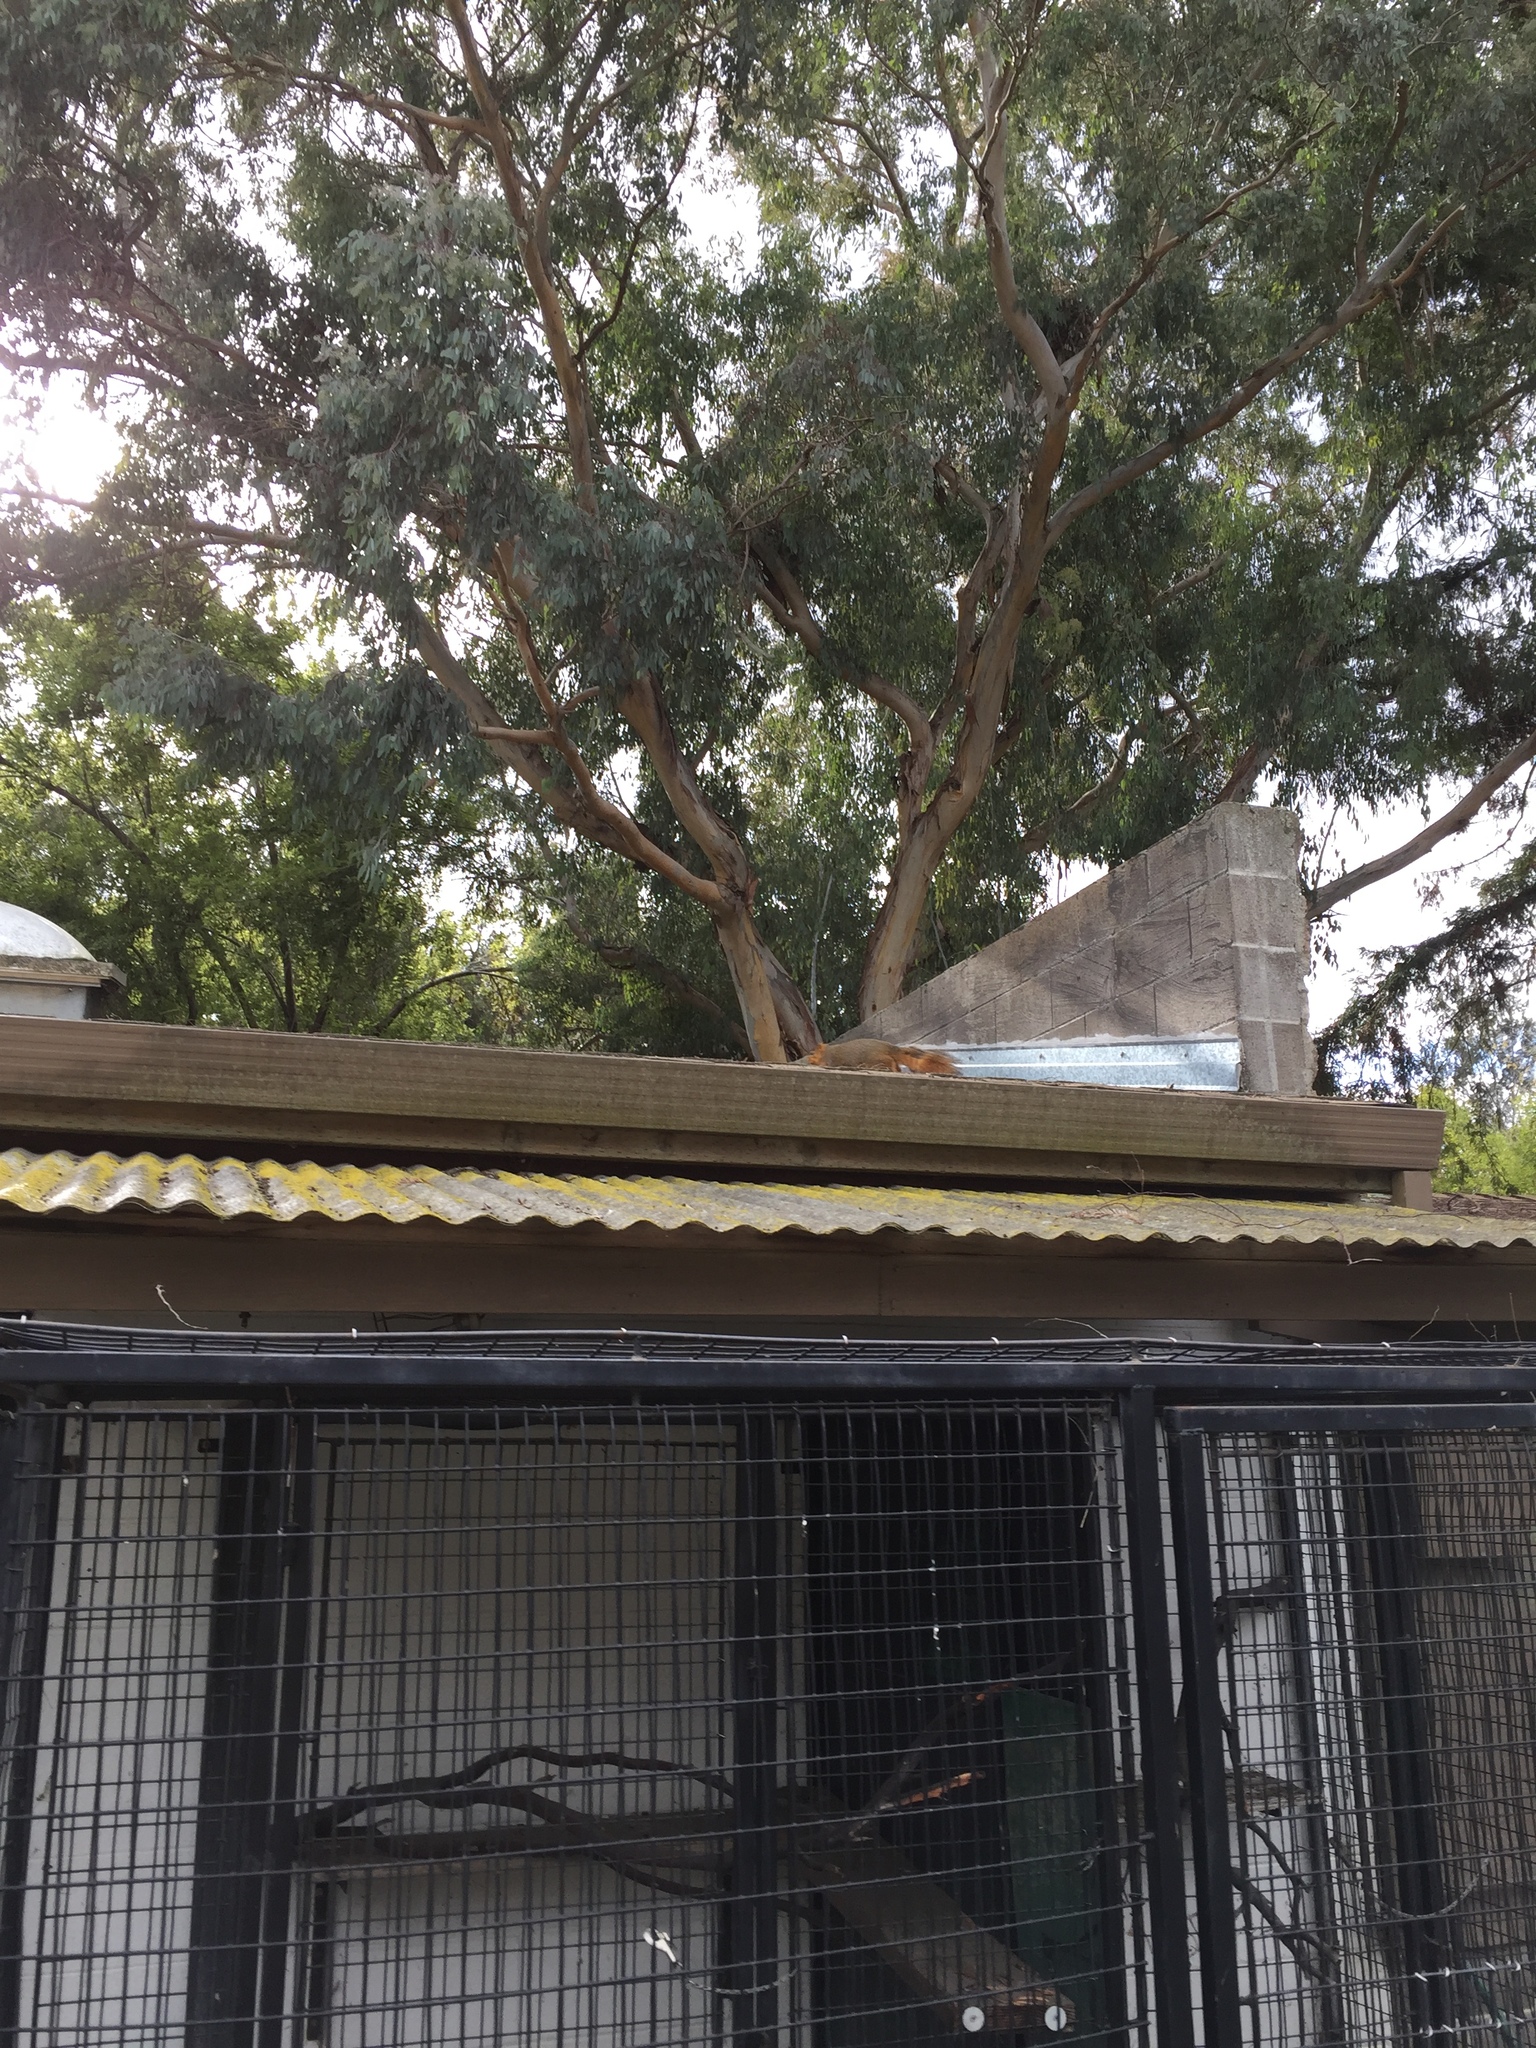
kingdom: Animalia
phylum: Chordata
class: Mammalia
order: Rodentia
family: Sciuridae
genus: Sciurus
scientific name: Sciurus niger
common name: Fox squirrel
